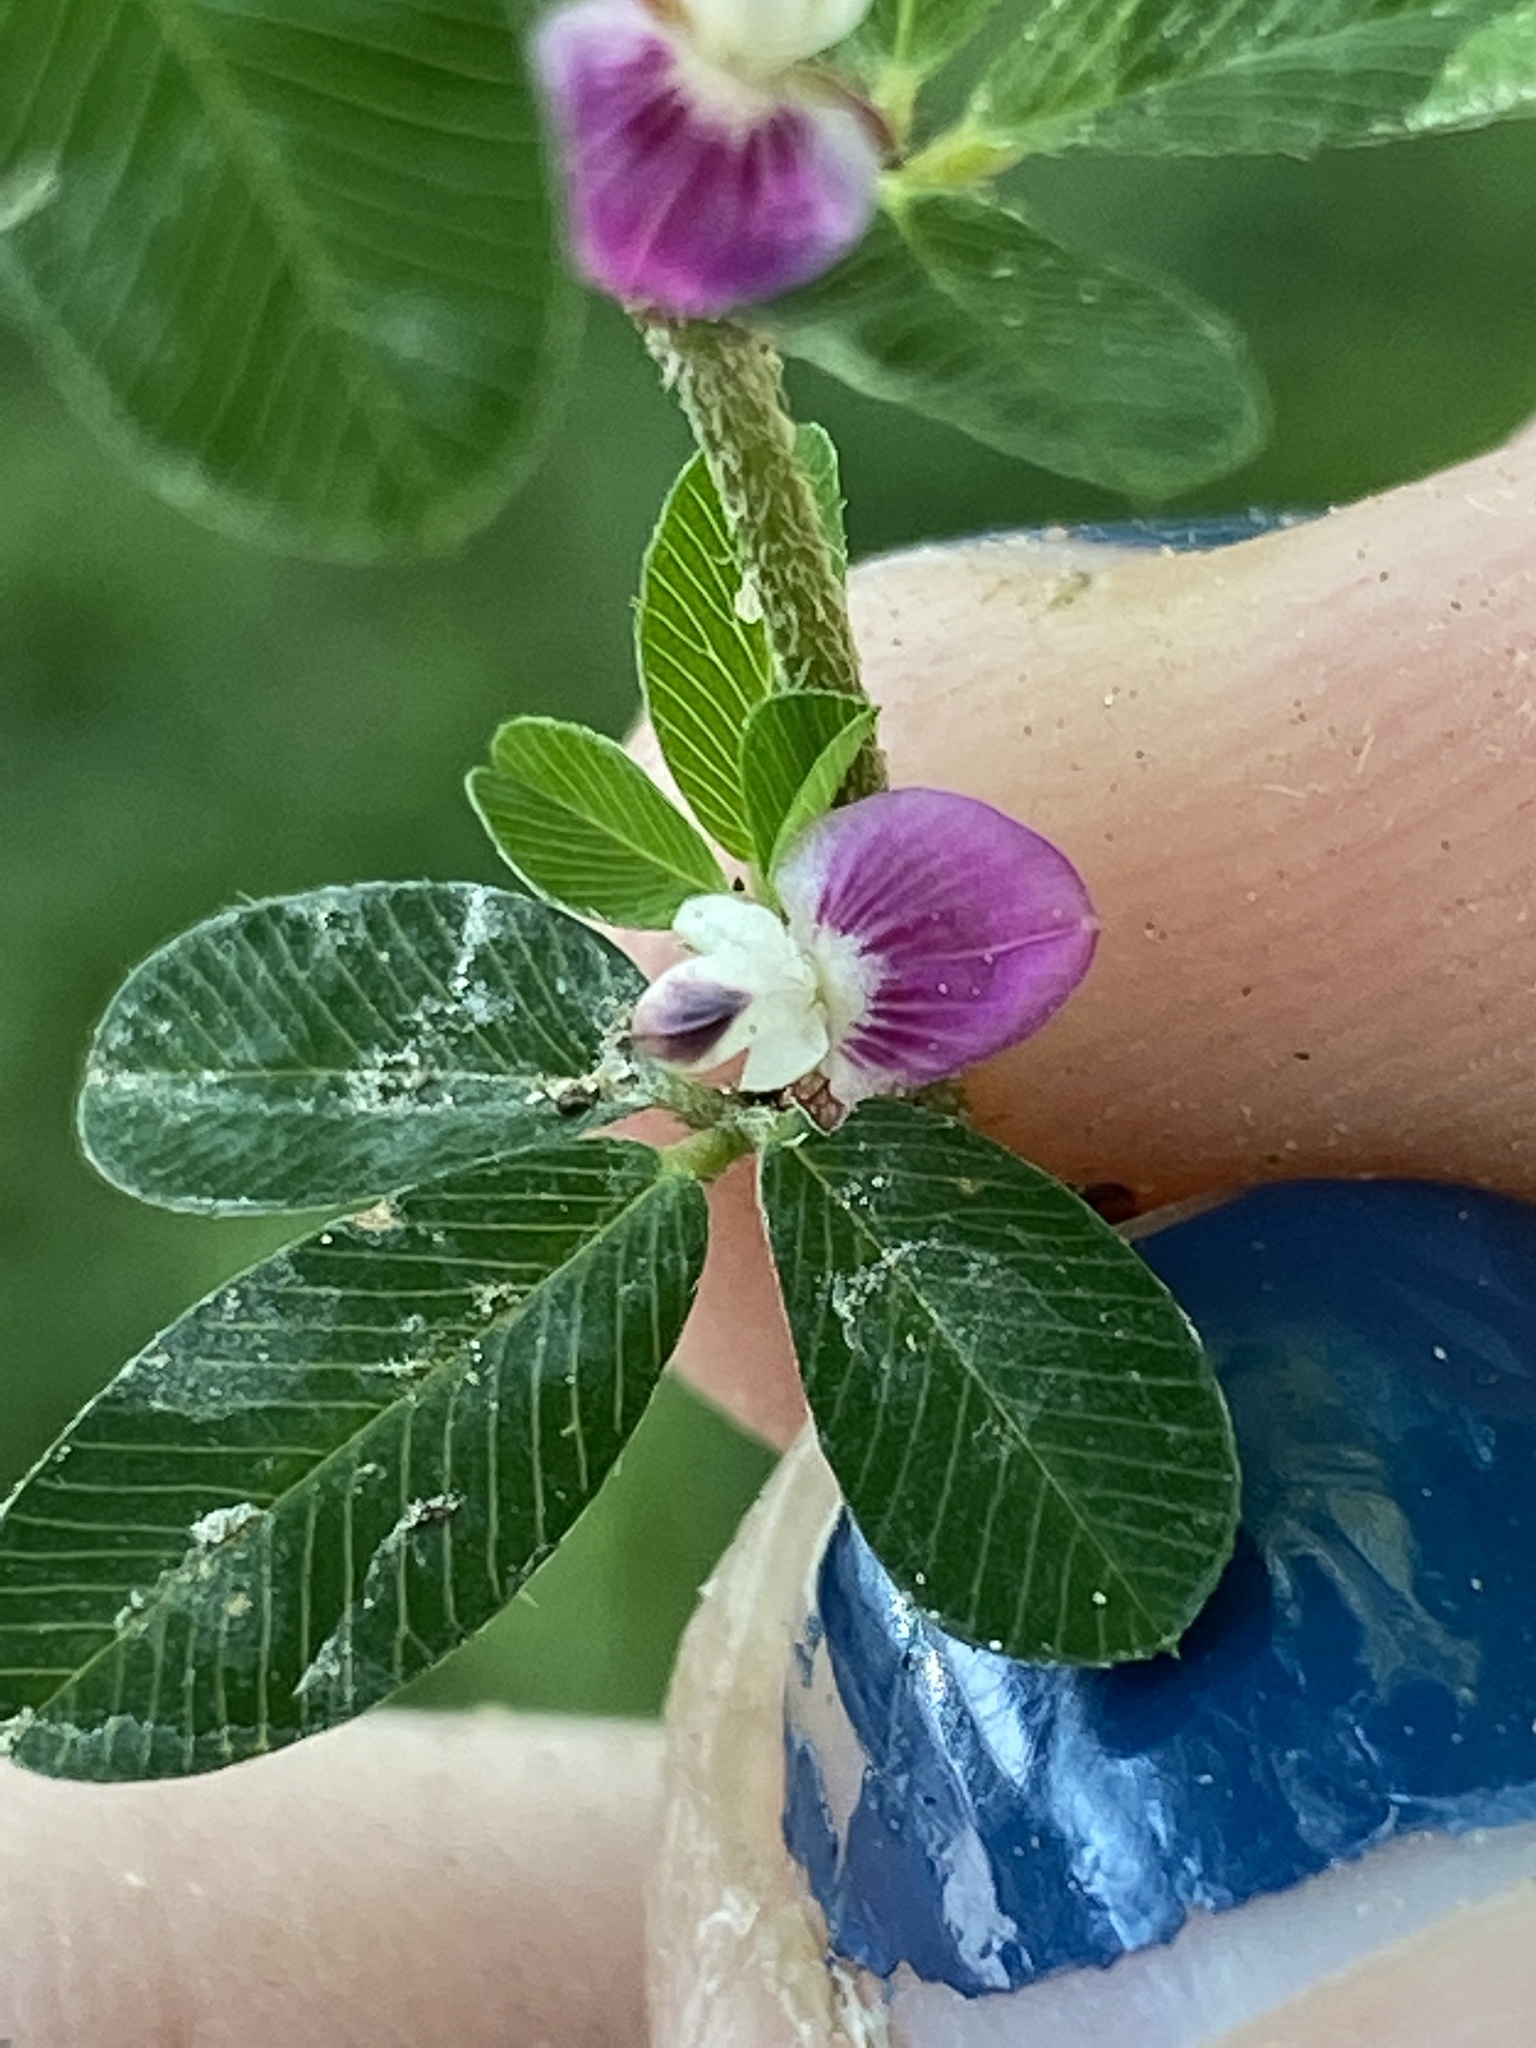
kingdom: Plantae
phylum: Tracheophyta
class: Magnoliopsida
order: Fabales
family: Fabaceae
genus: Kummerowia
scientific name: Kummerowia striata
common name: Japanese clover
